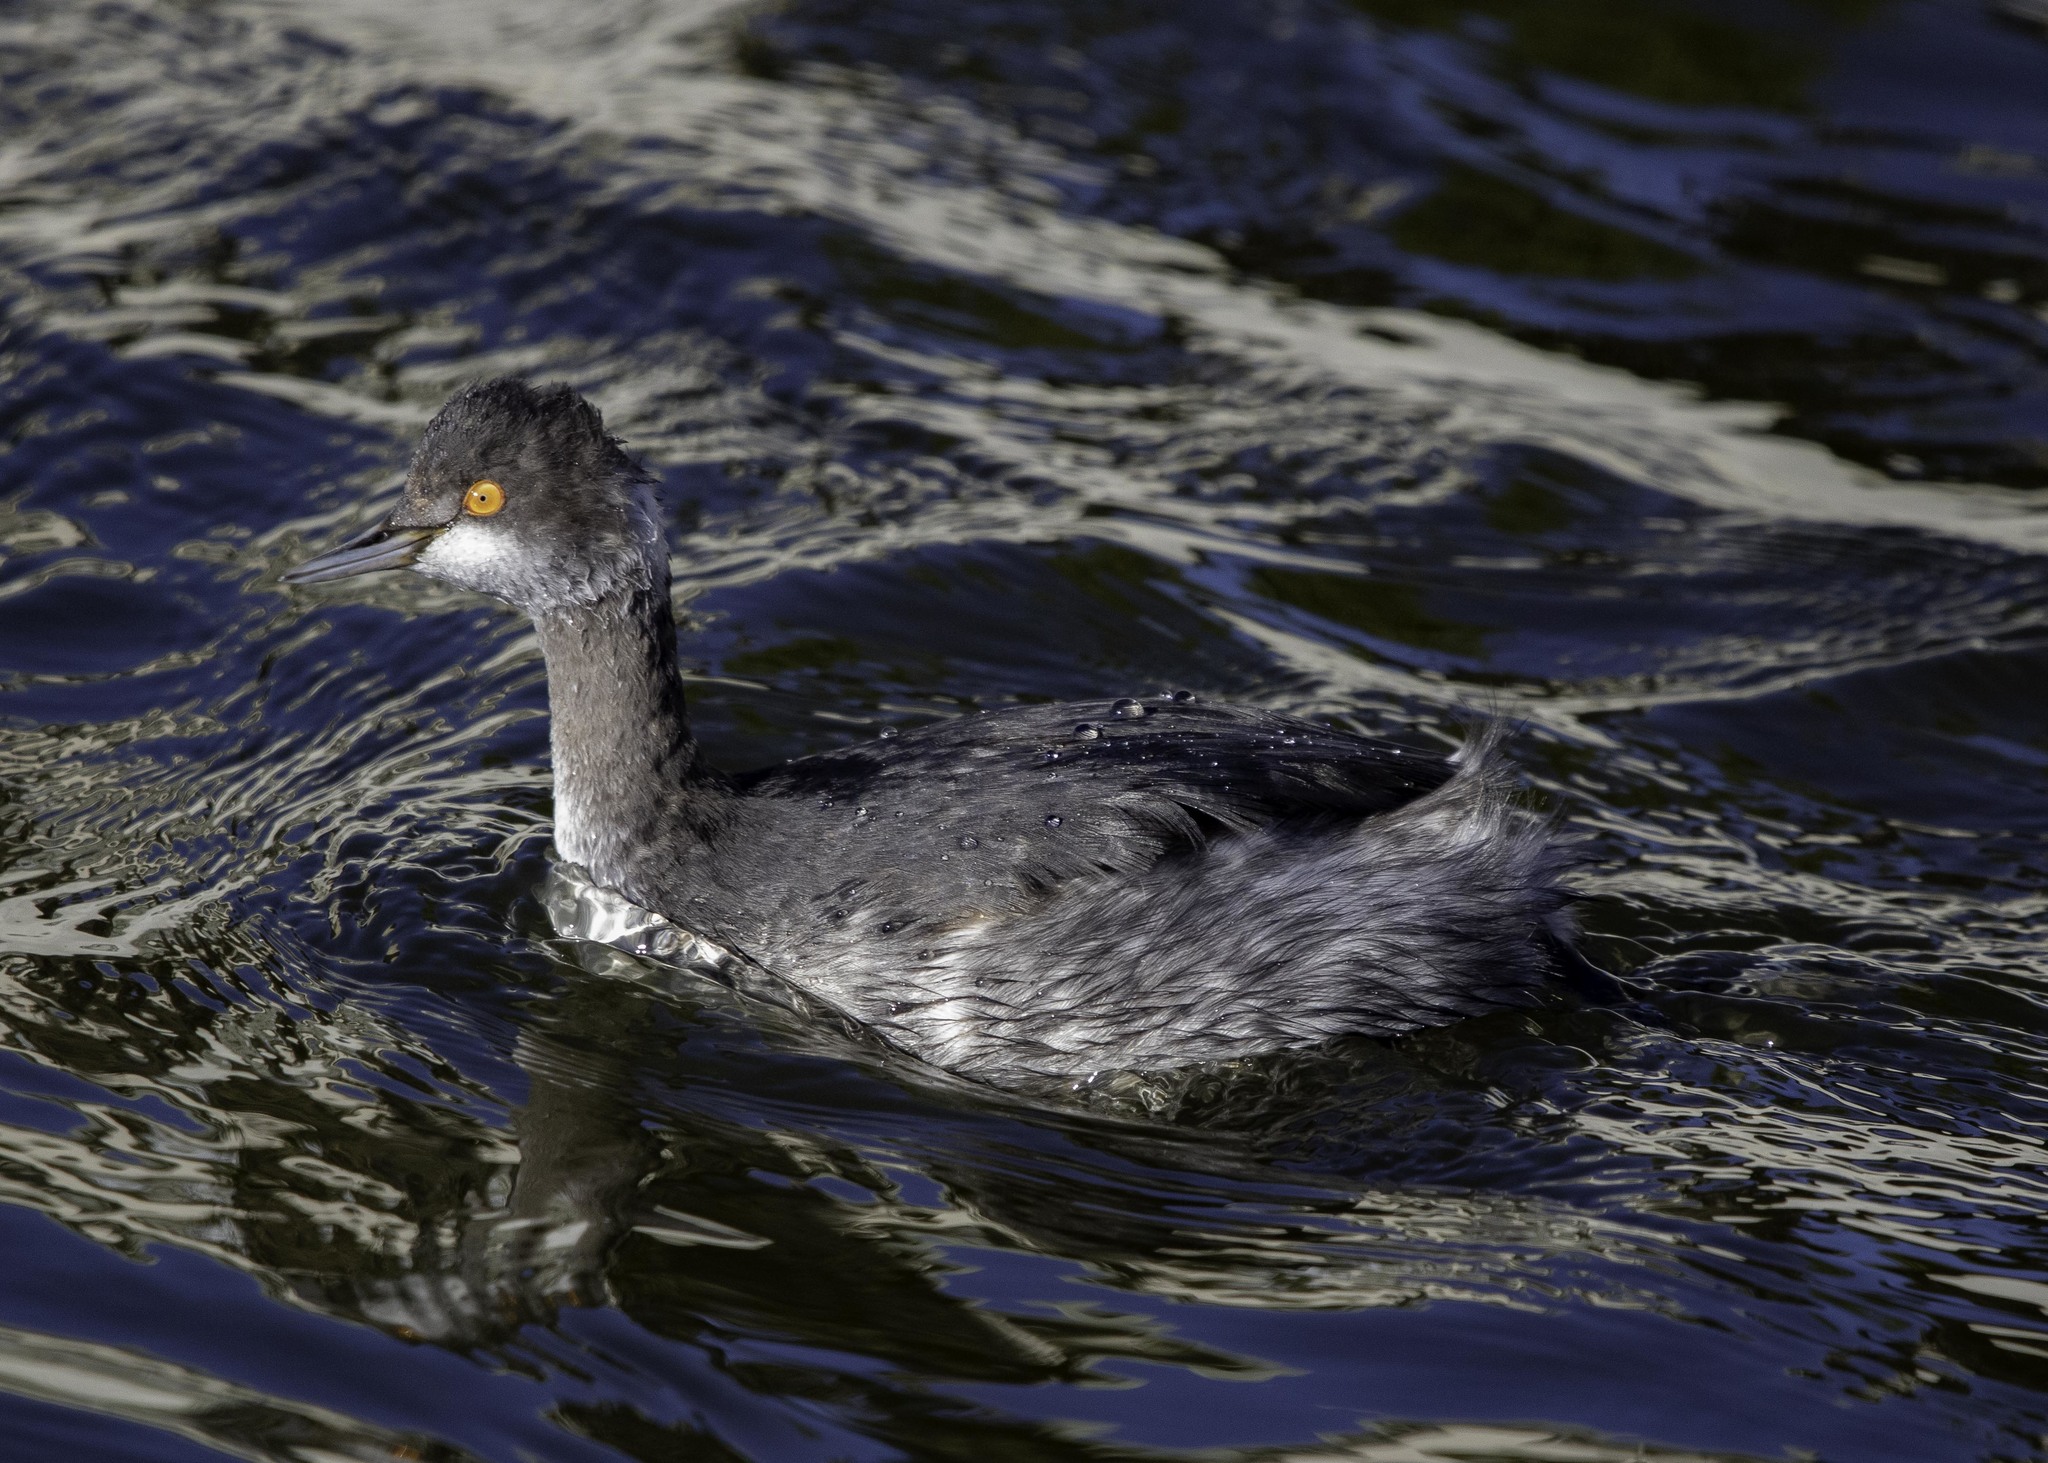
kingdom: Animalia
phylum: Chordata
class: Aves
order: Podicipediformes
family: Podicipedidae
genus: Podiceps
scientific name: Podiceps nigricollis
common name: Black-necked grebe
